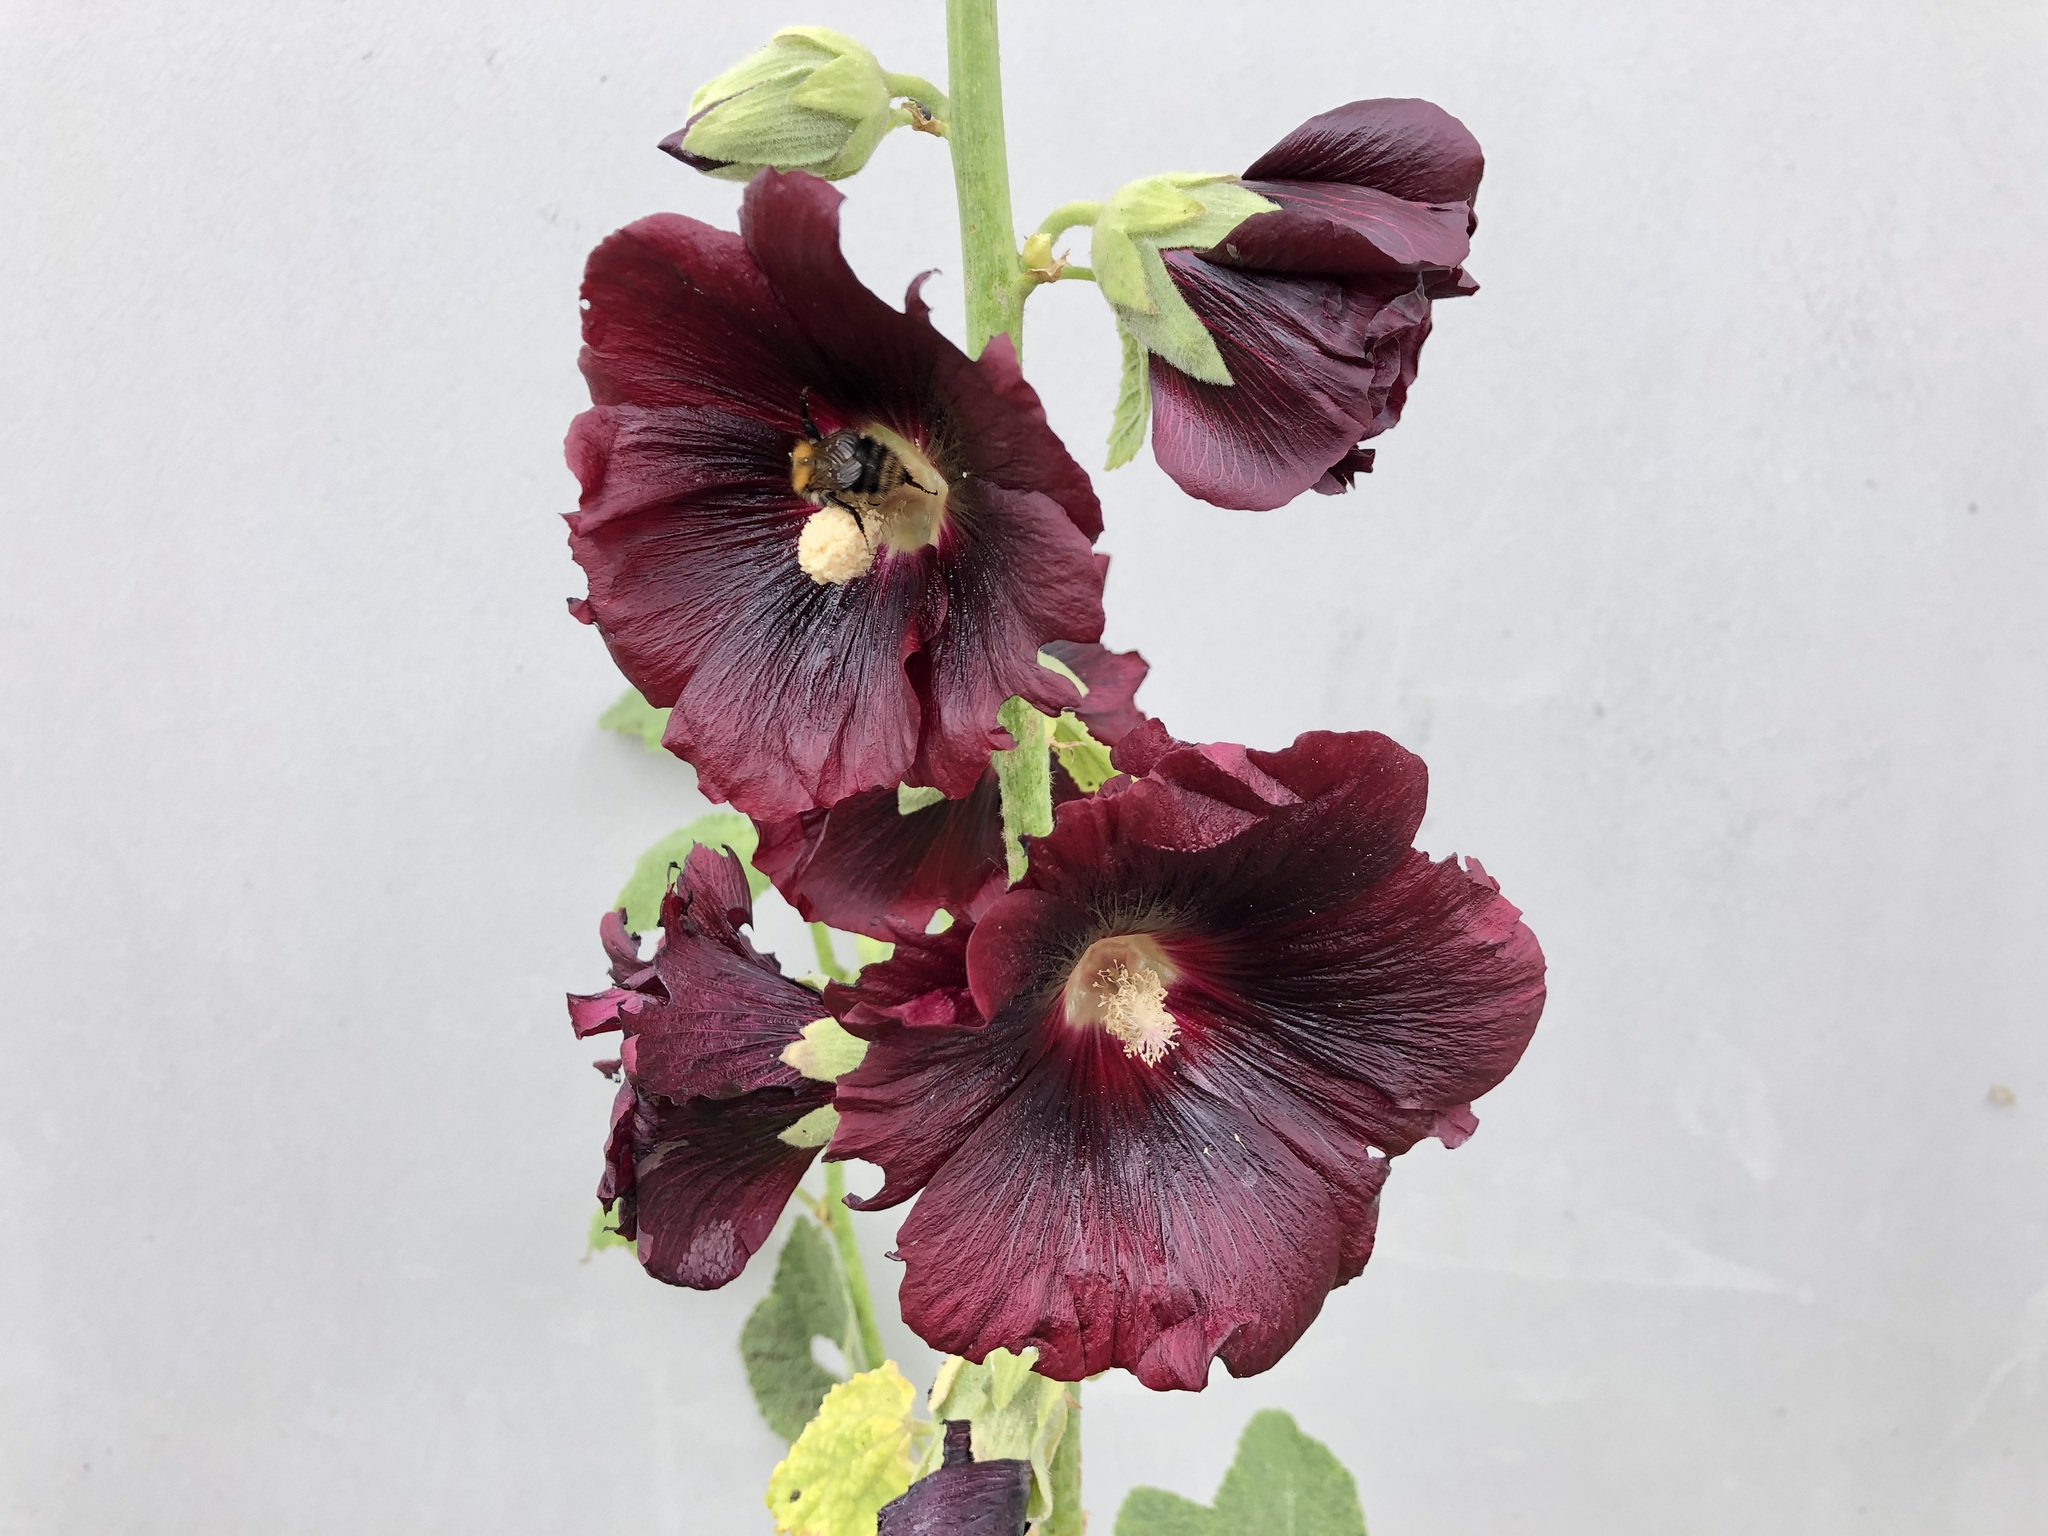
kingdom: Plantae
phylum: Tracheophyta
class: Magnoliopsida
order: Malvales
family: Malvaceae
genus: Alcea
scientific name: Alcea rosea
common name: Hollyhock
